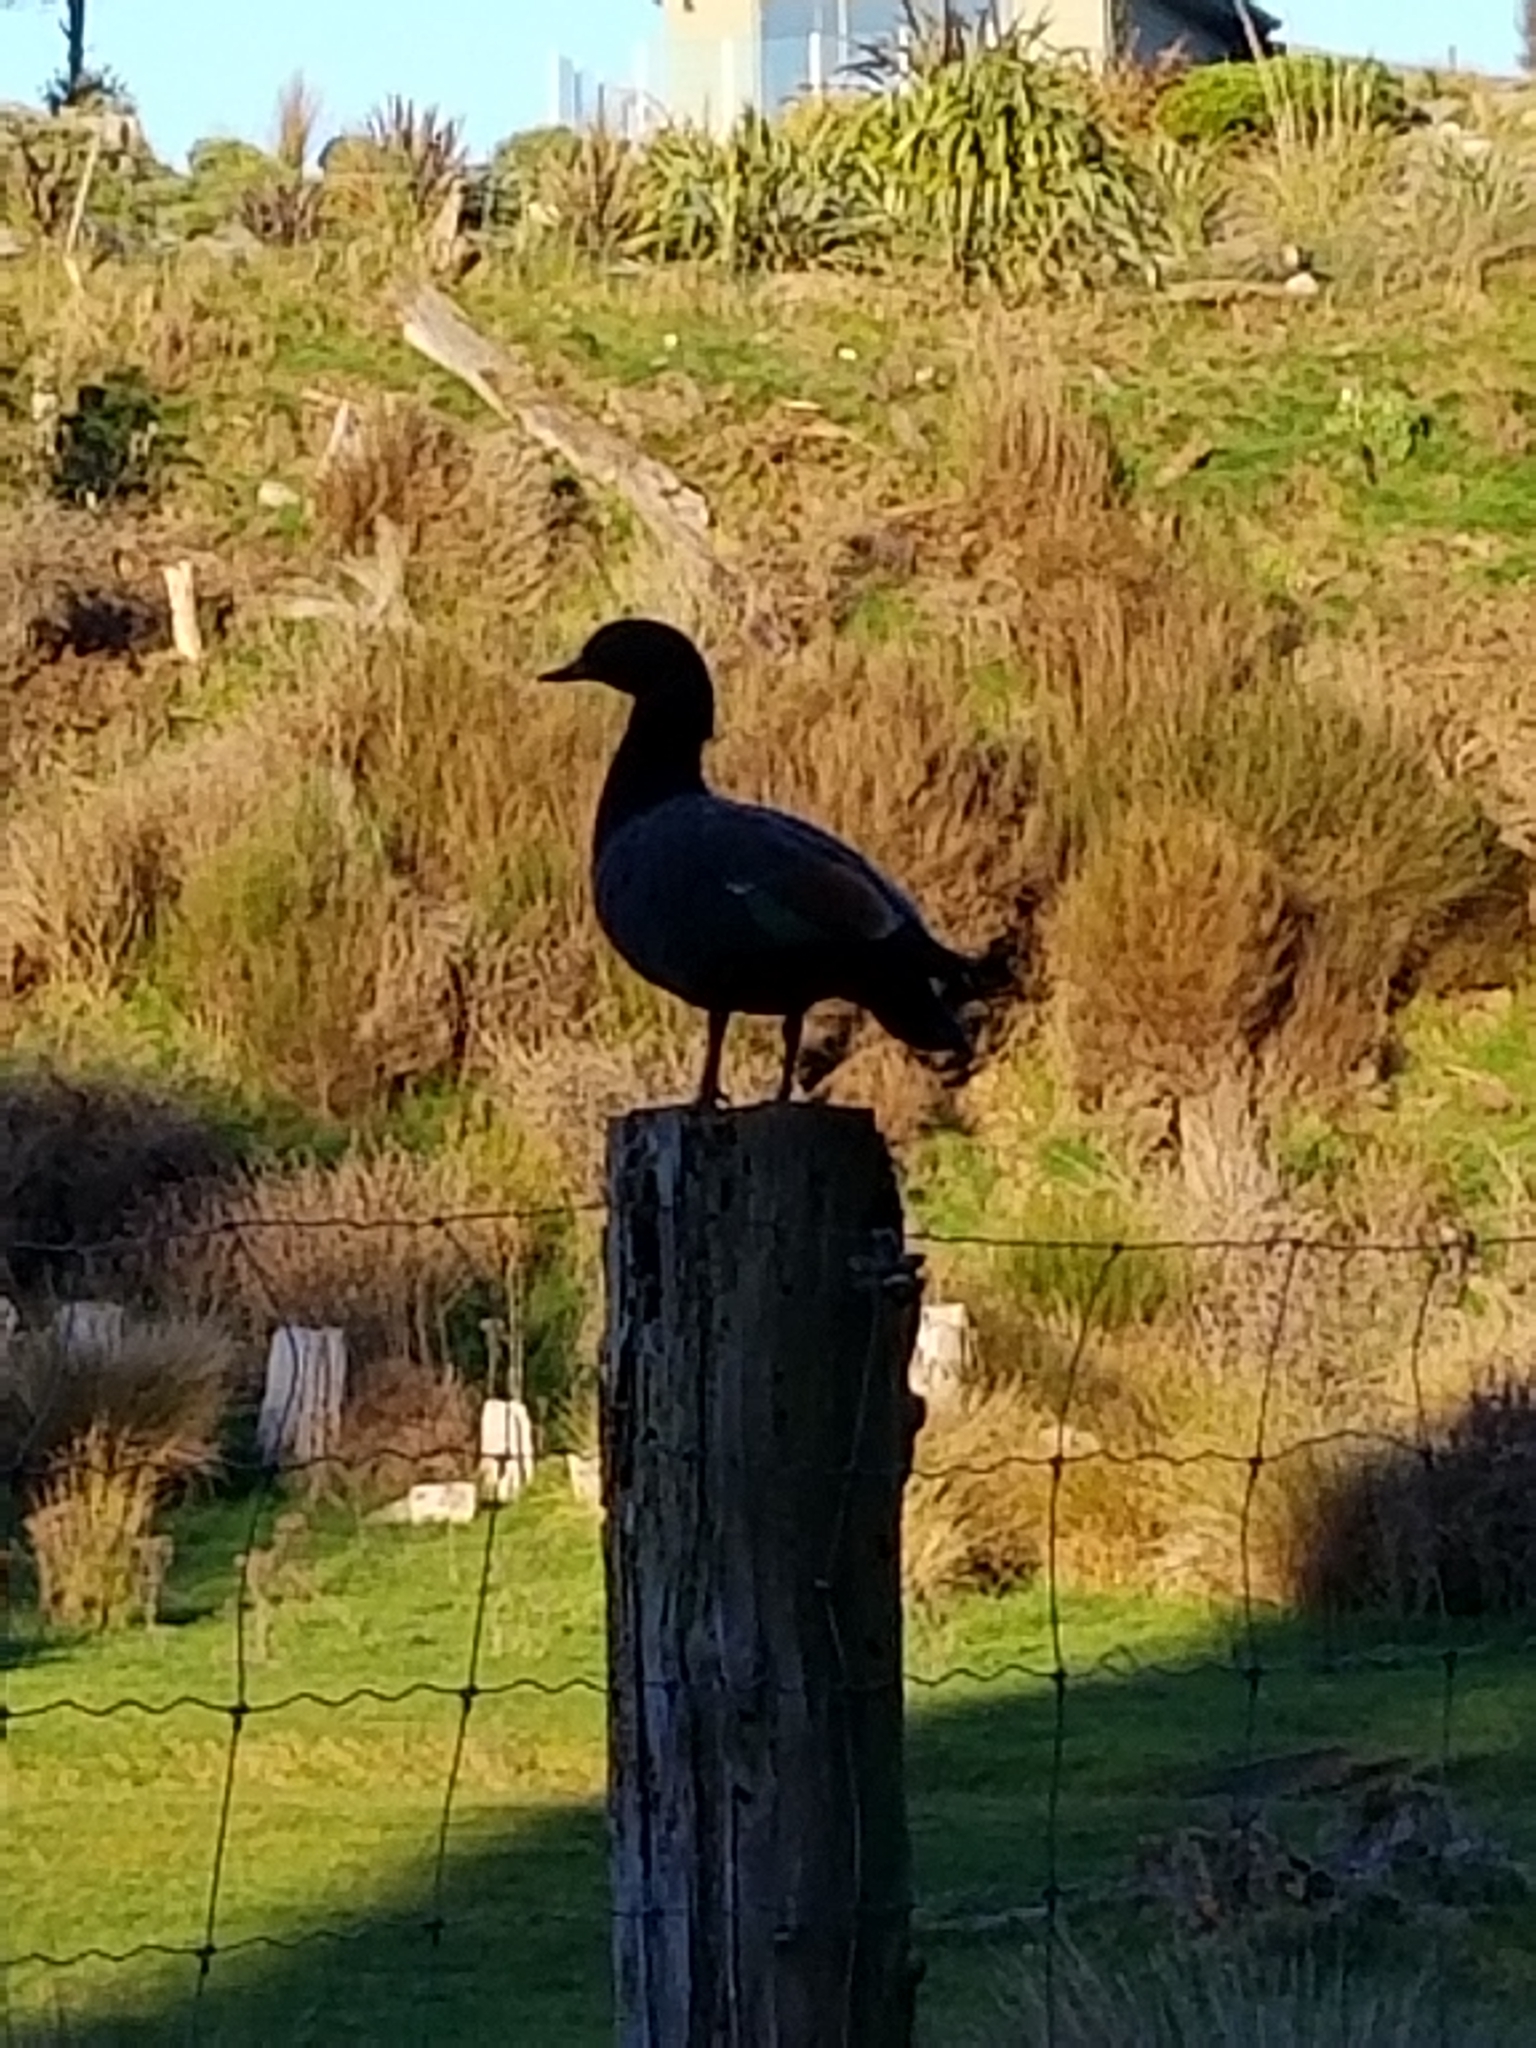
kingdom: Animalia
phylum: Chordata
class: Aves
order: Anseriformes
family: Anatidae
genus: Tadorna
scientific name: Tadorna variegata
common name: Paradise shelduck
